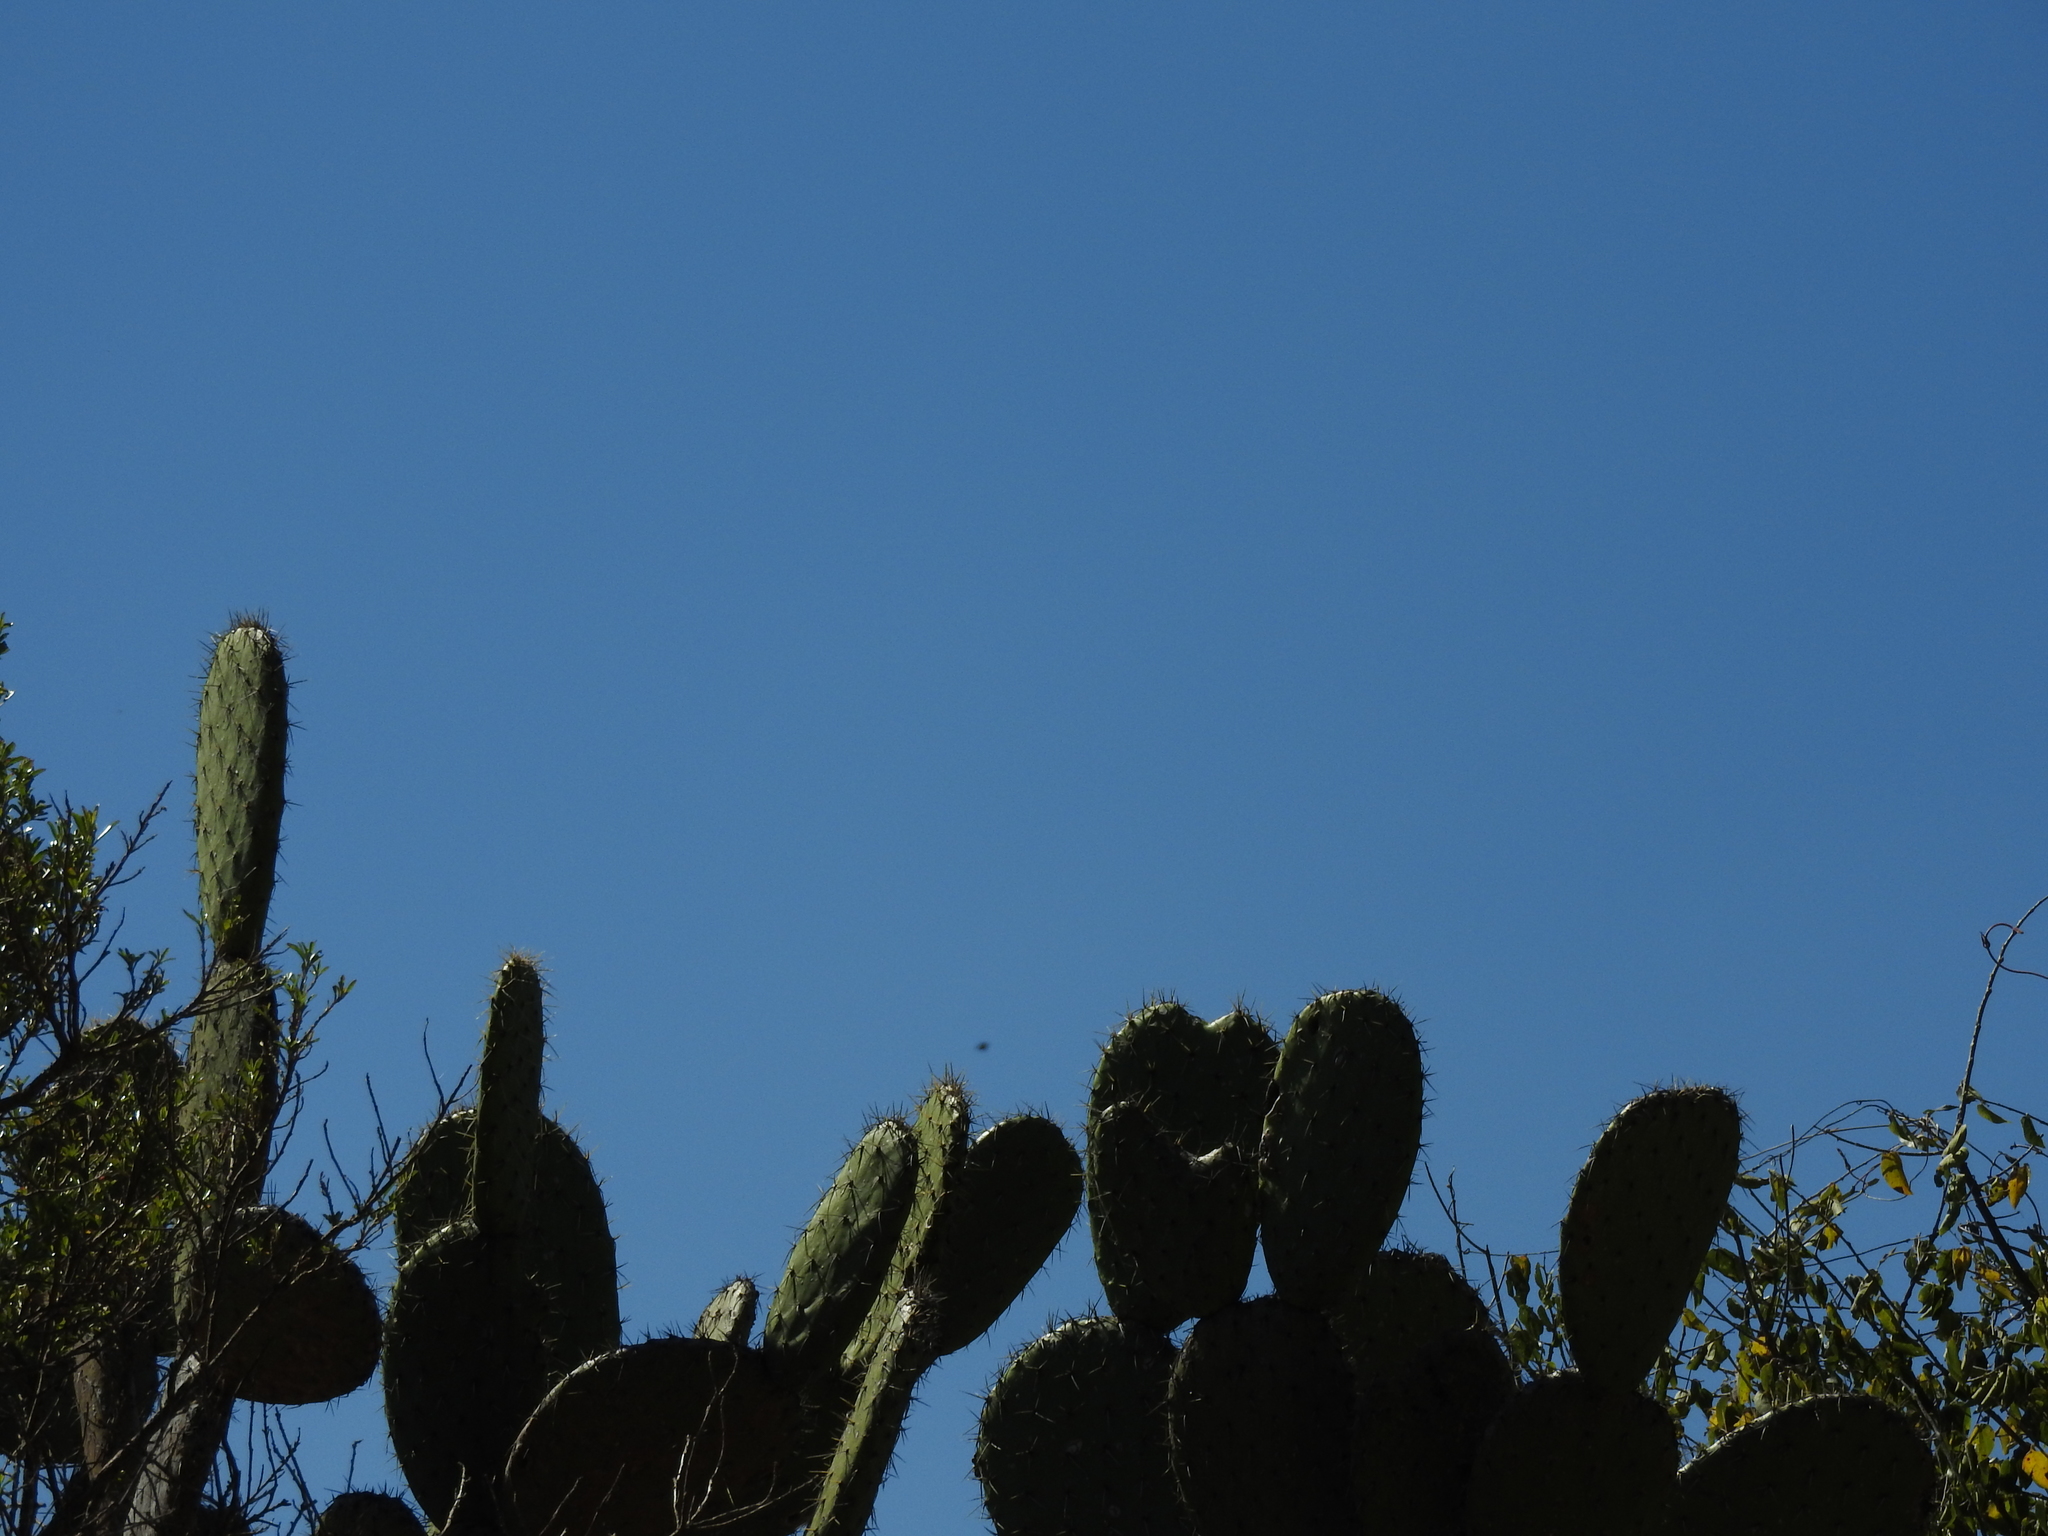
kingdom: Plantae
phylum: Tracheophyta
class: Magnoliopsida
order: Caryophyllales
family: Cactaceae
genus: Opuntia
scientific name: Opuntia hyptiacantha
